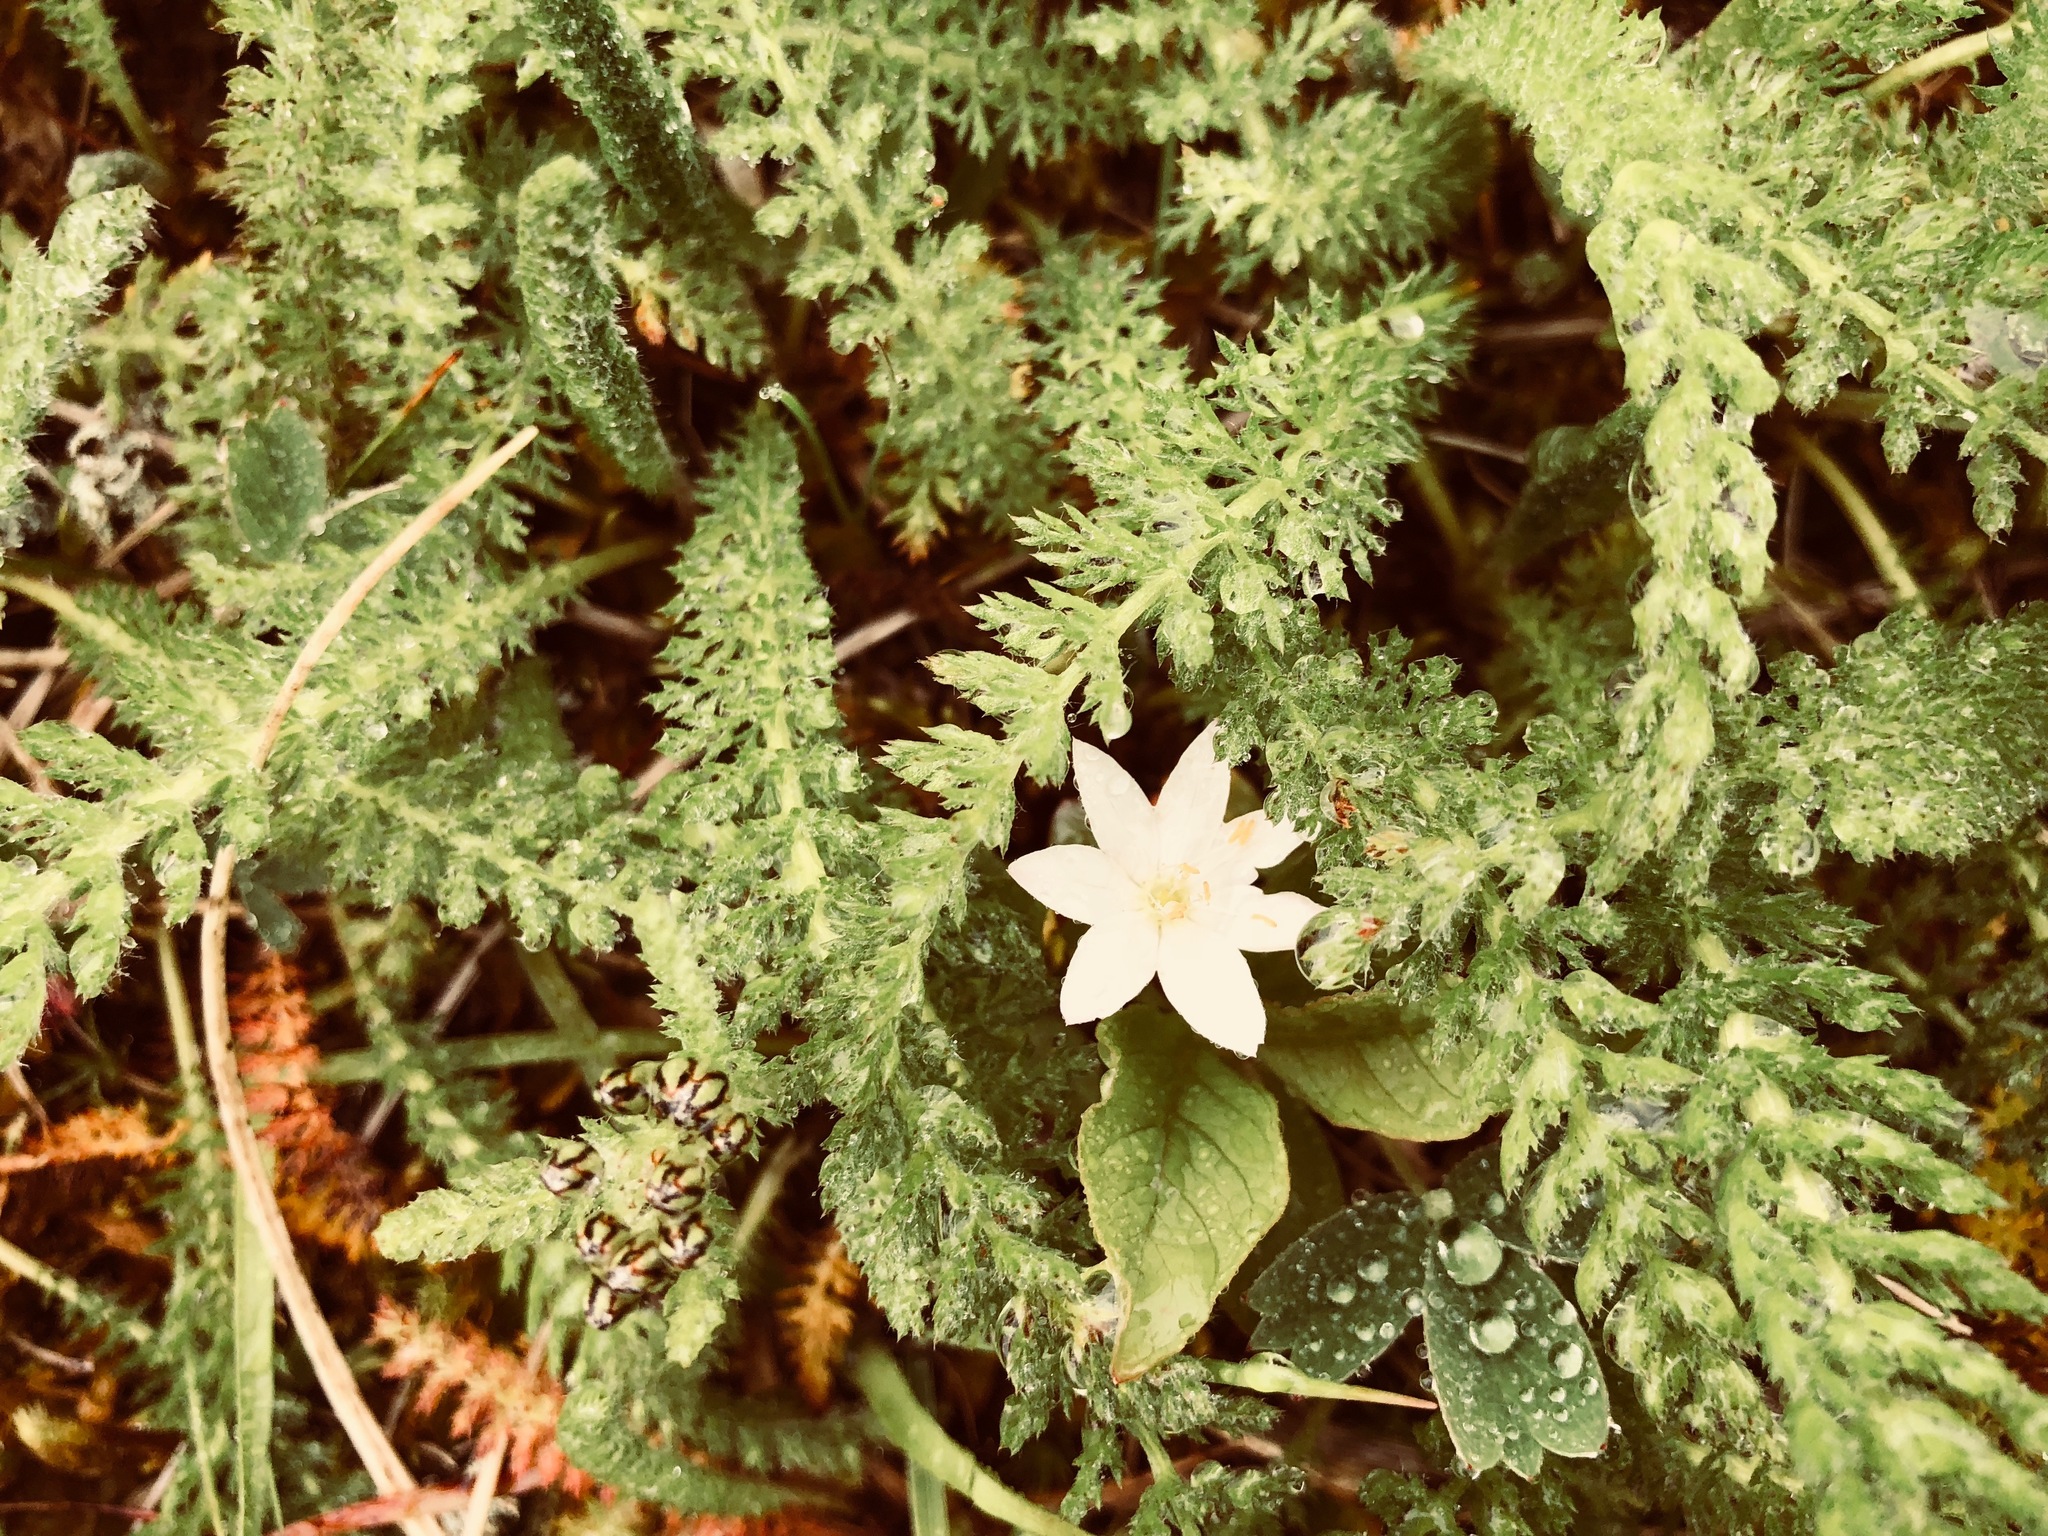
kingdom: Plantae
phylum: Tracheophyta
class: Magnoliopsida
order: Ericales
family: Primulaceae
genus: Lysimachia
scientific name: Lysimachia europaea
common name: Arctic starflower
